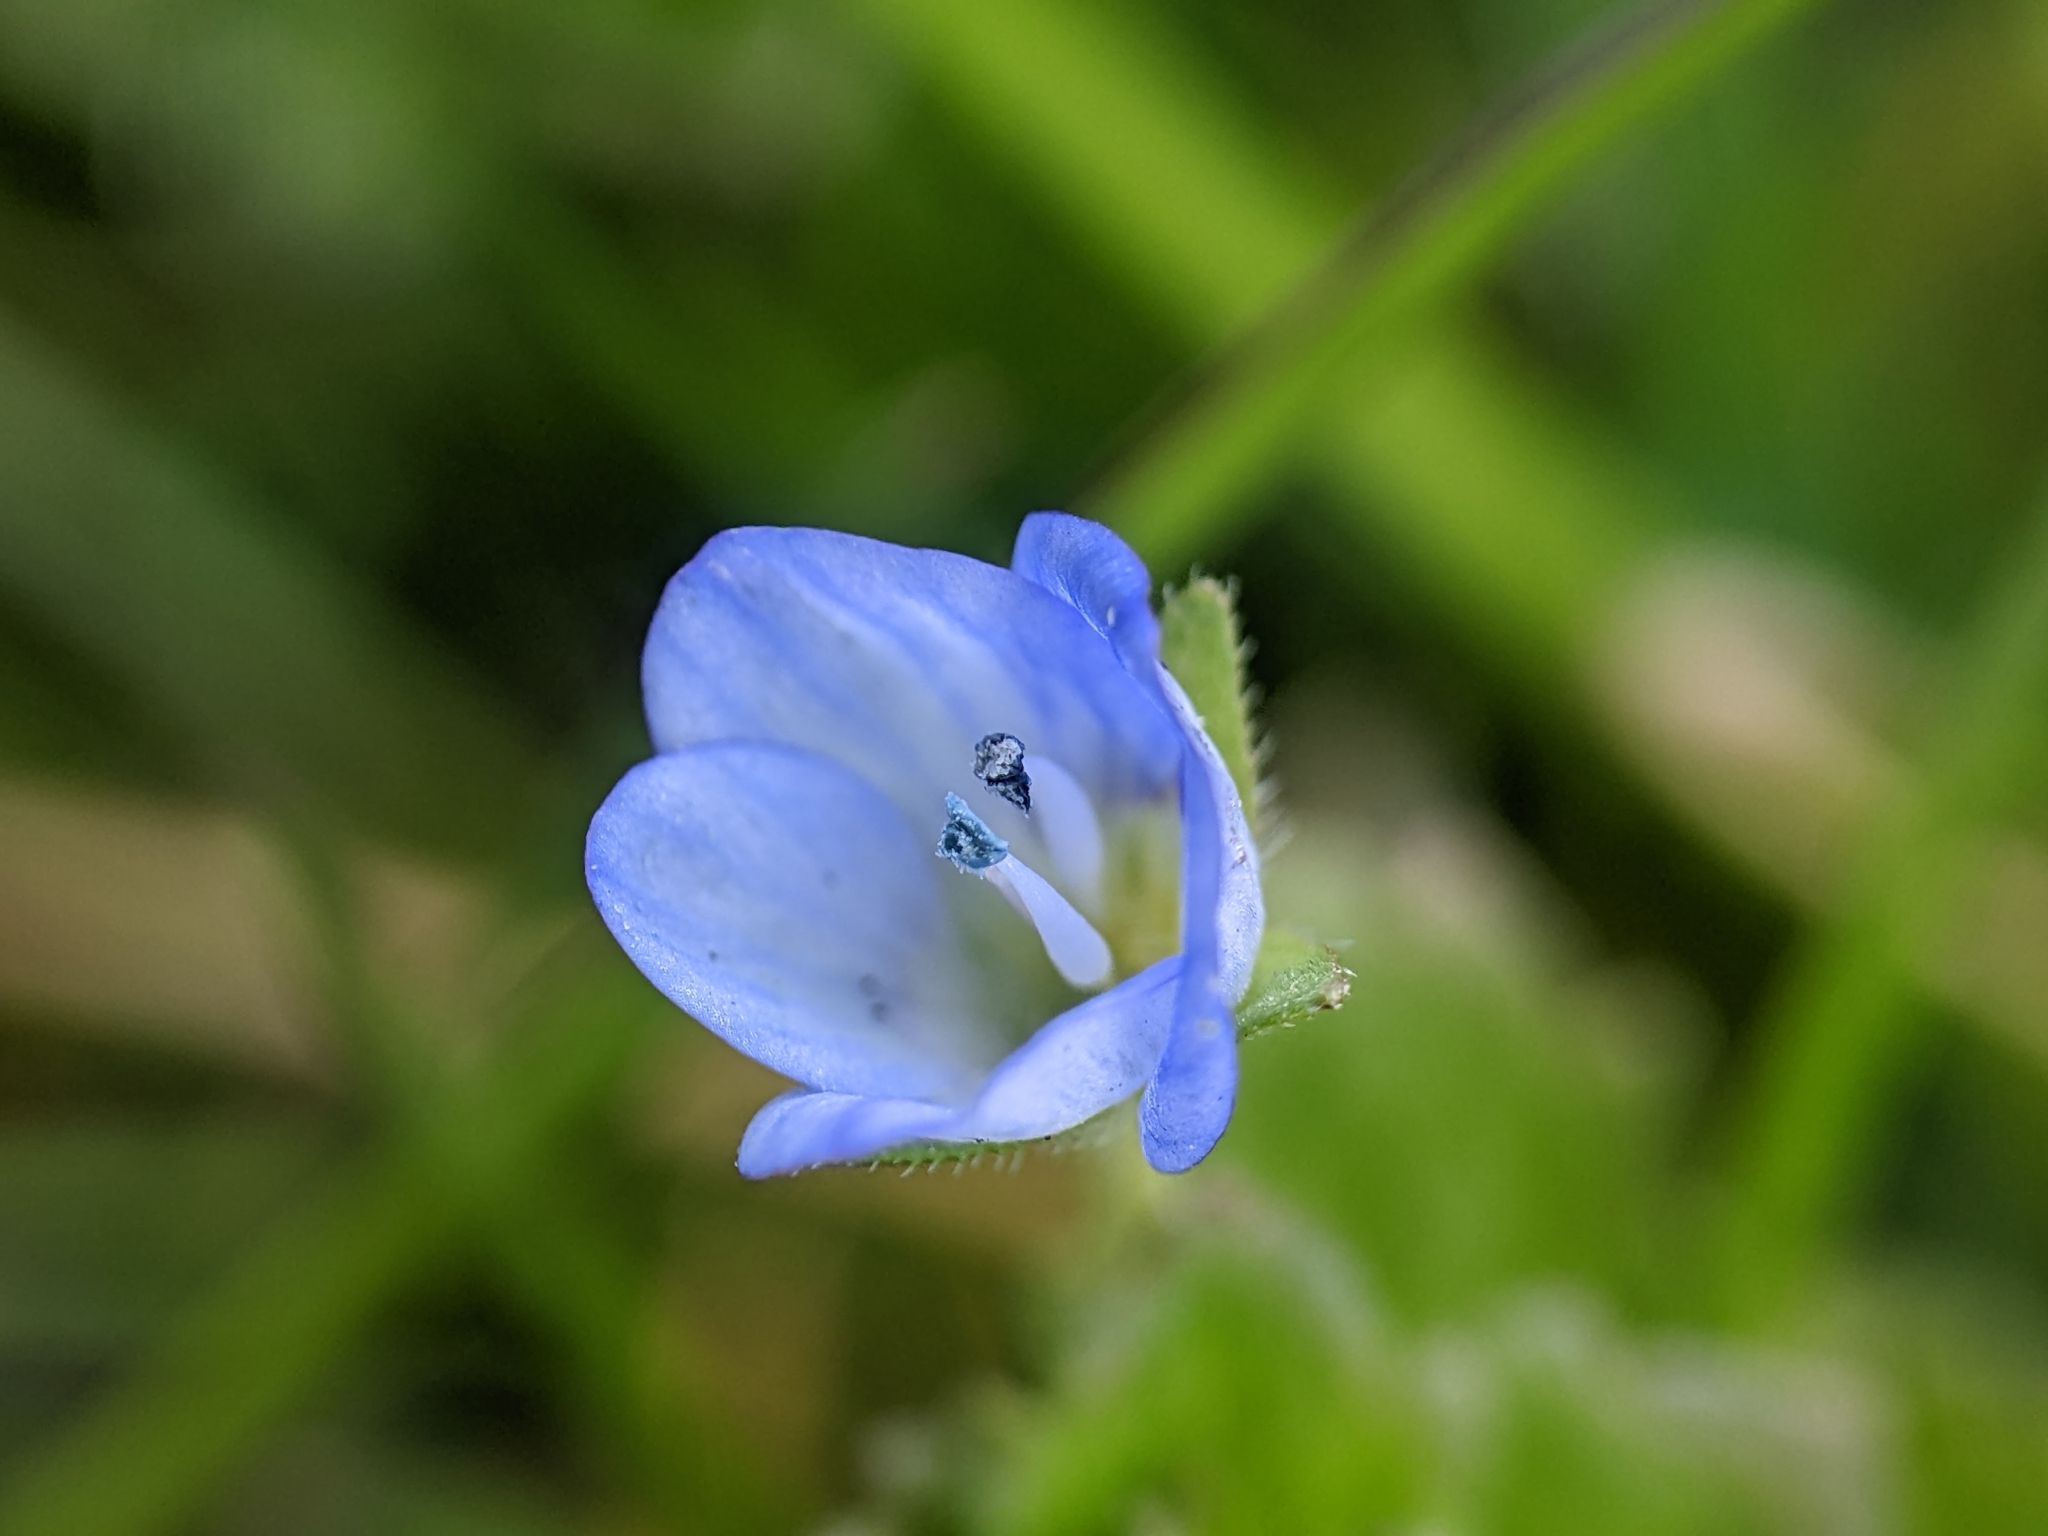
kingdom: Plantae
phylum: Tracheophyta
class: Magnoliopsida
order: Lamiales
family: Plantaginaceae
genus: Veronica
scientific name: Veronica persica
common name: Common field-speedwell
